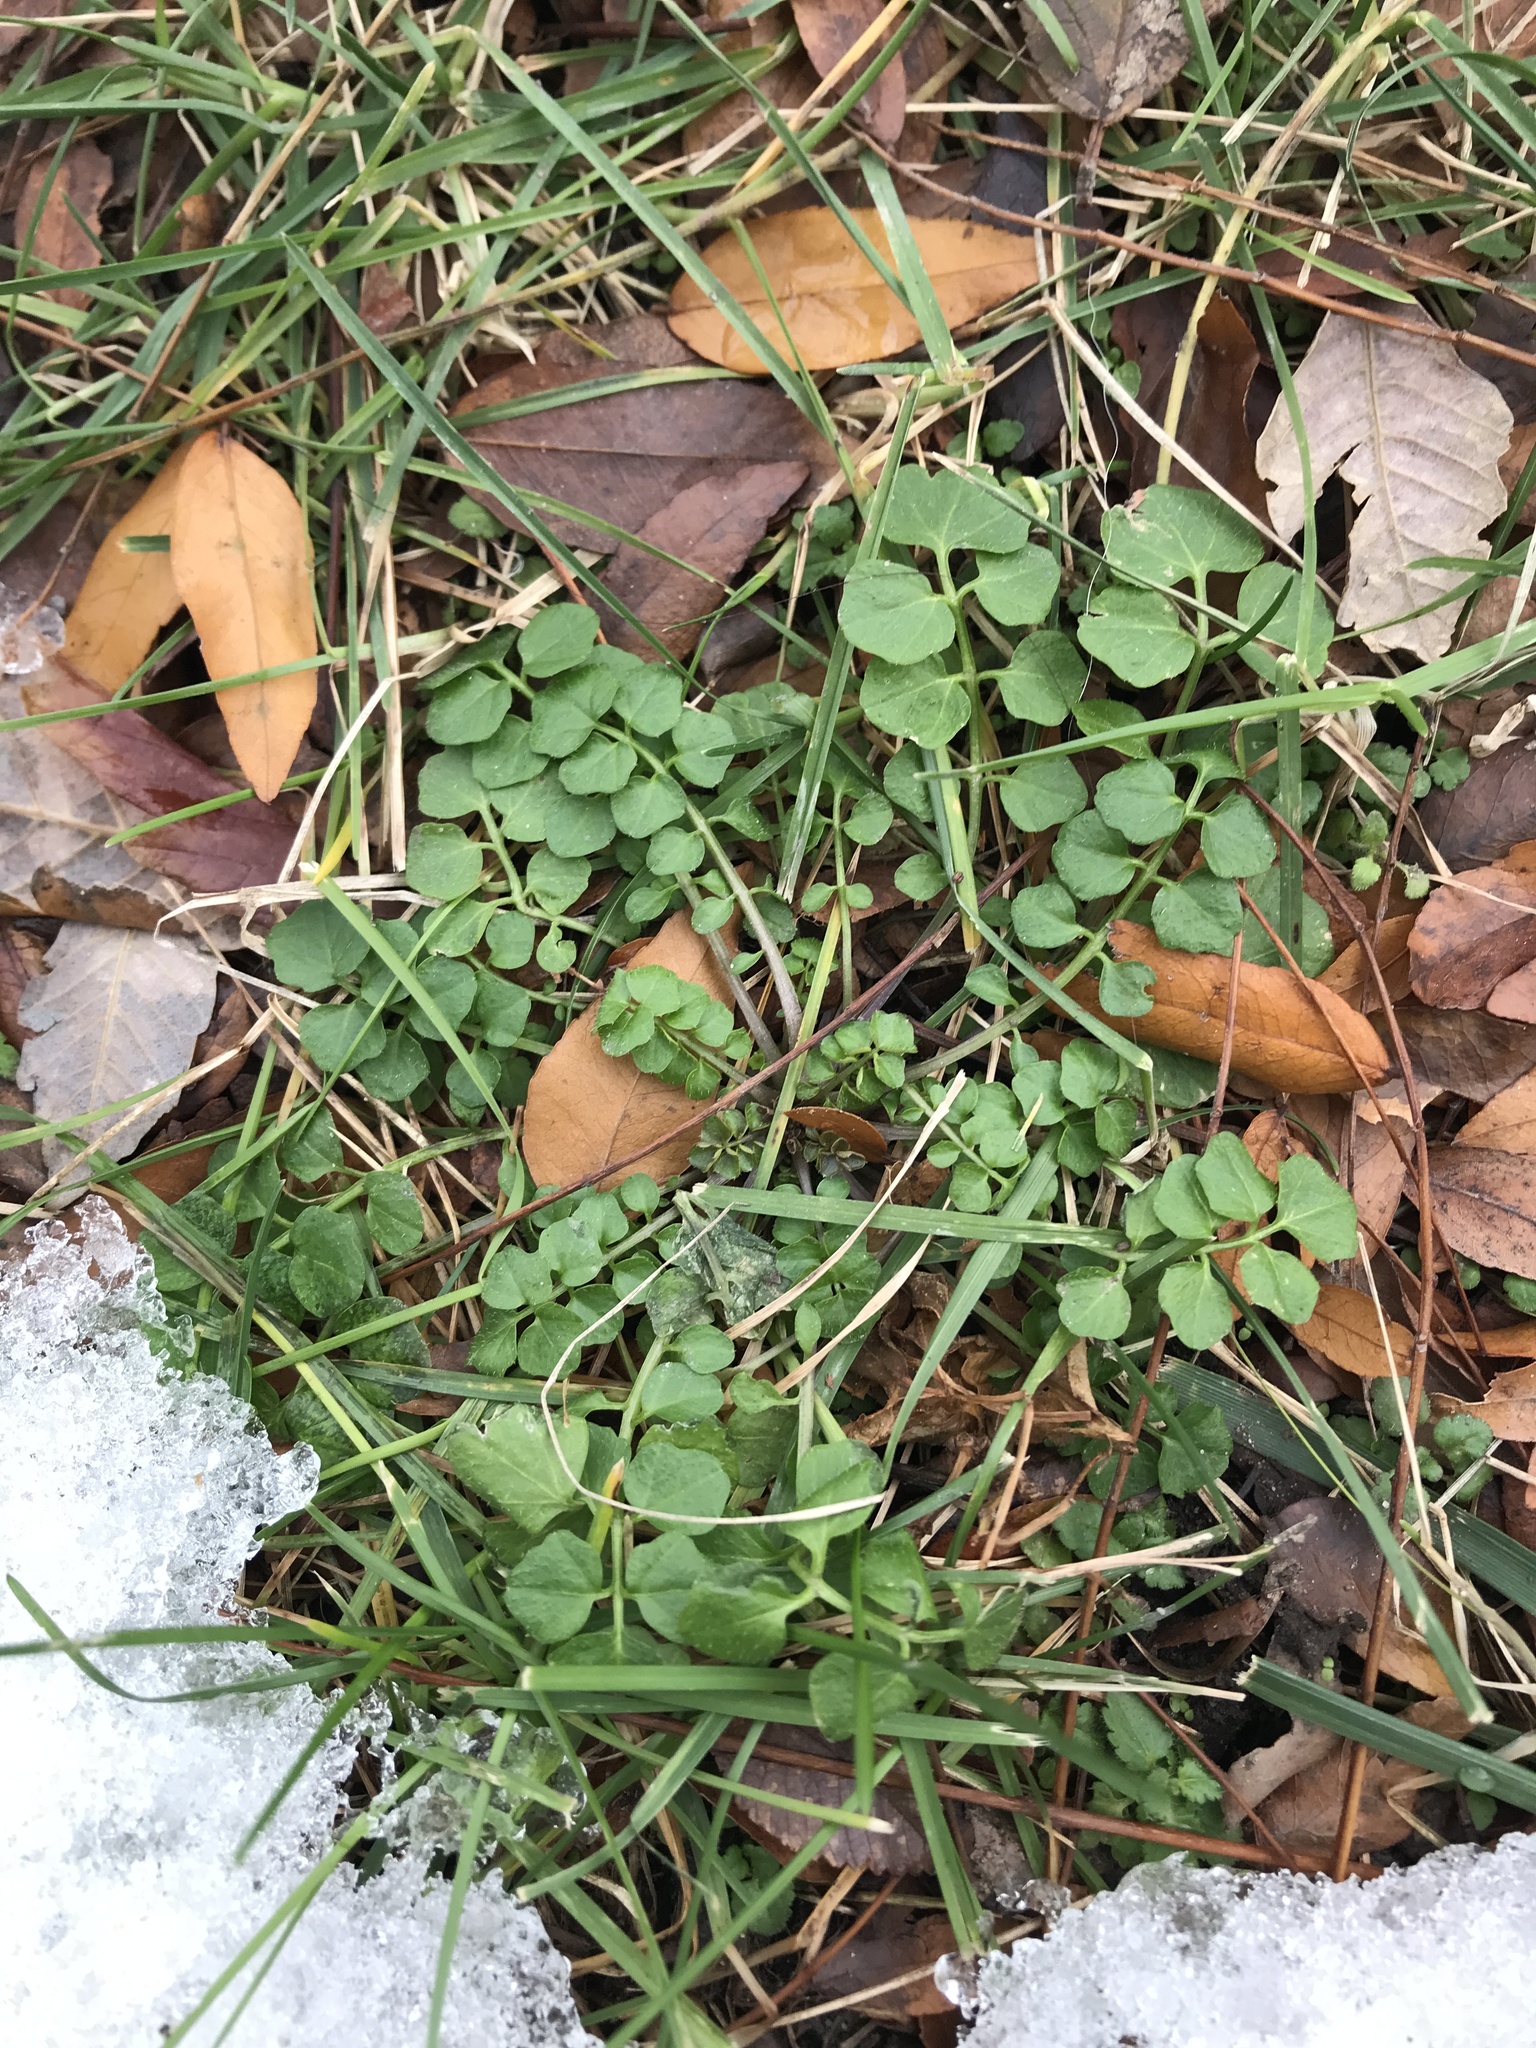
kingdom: Plantae
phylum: Tracheophyta
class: Magnoliopsida
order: Brassicales
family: Brassicaceae
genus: Cardamine
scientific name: Cardamine hirsuta
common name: Hairy bittercress
